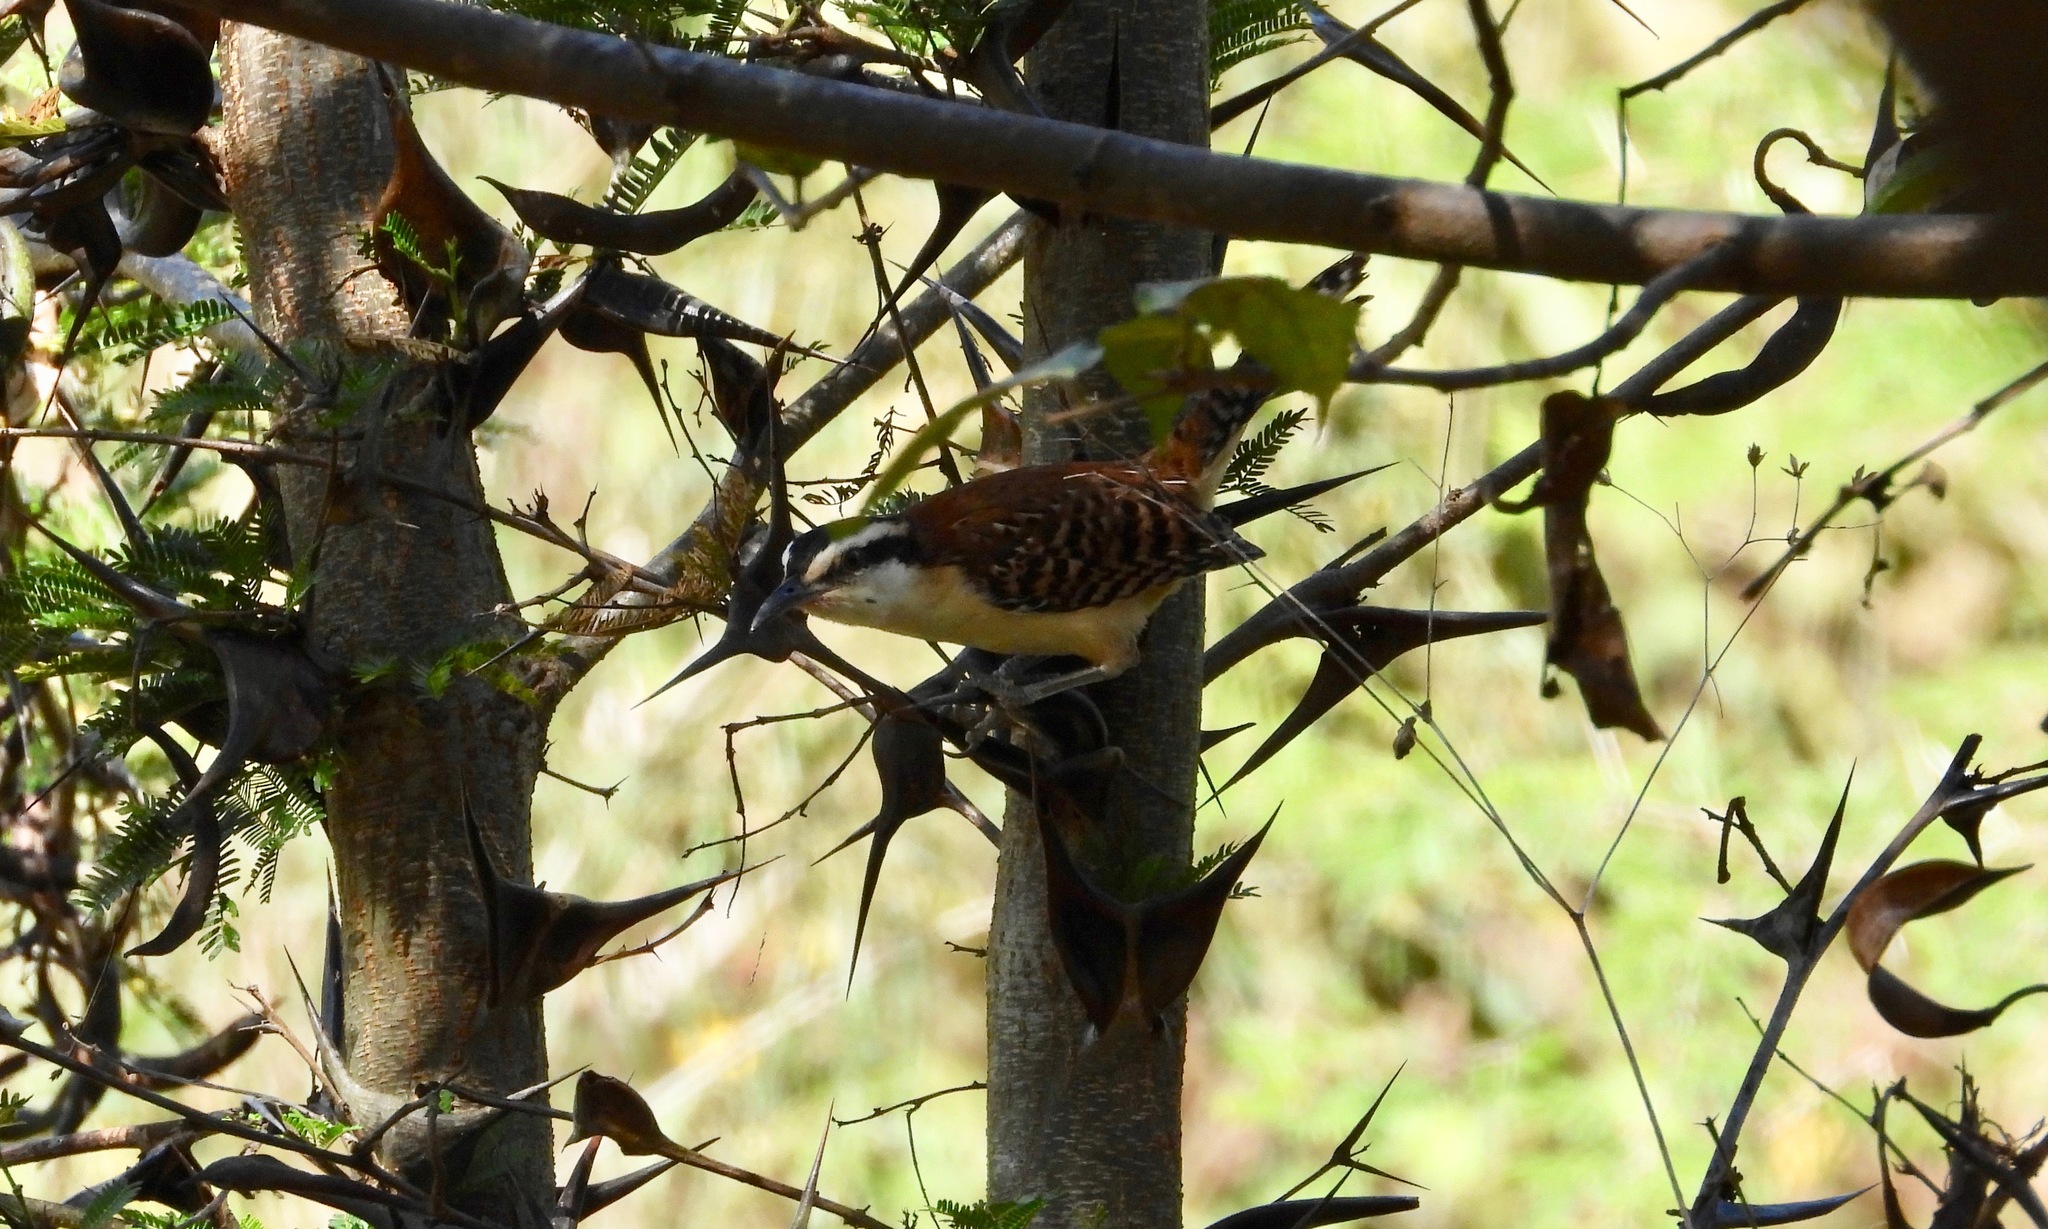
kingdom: Animalia
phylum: Chordata
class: Aves
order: Passeriformes
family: Troglodytidae
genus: Campylorhynchus
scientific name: Campylorhynchus rufinucha
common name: Rufous-naped wren
